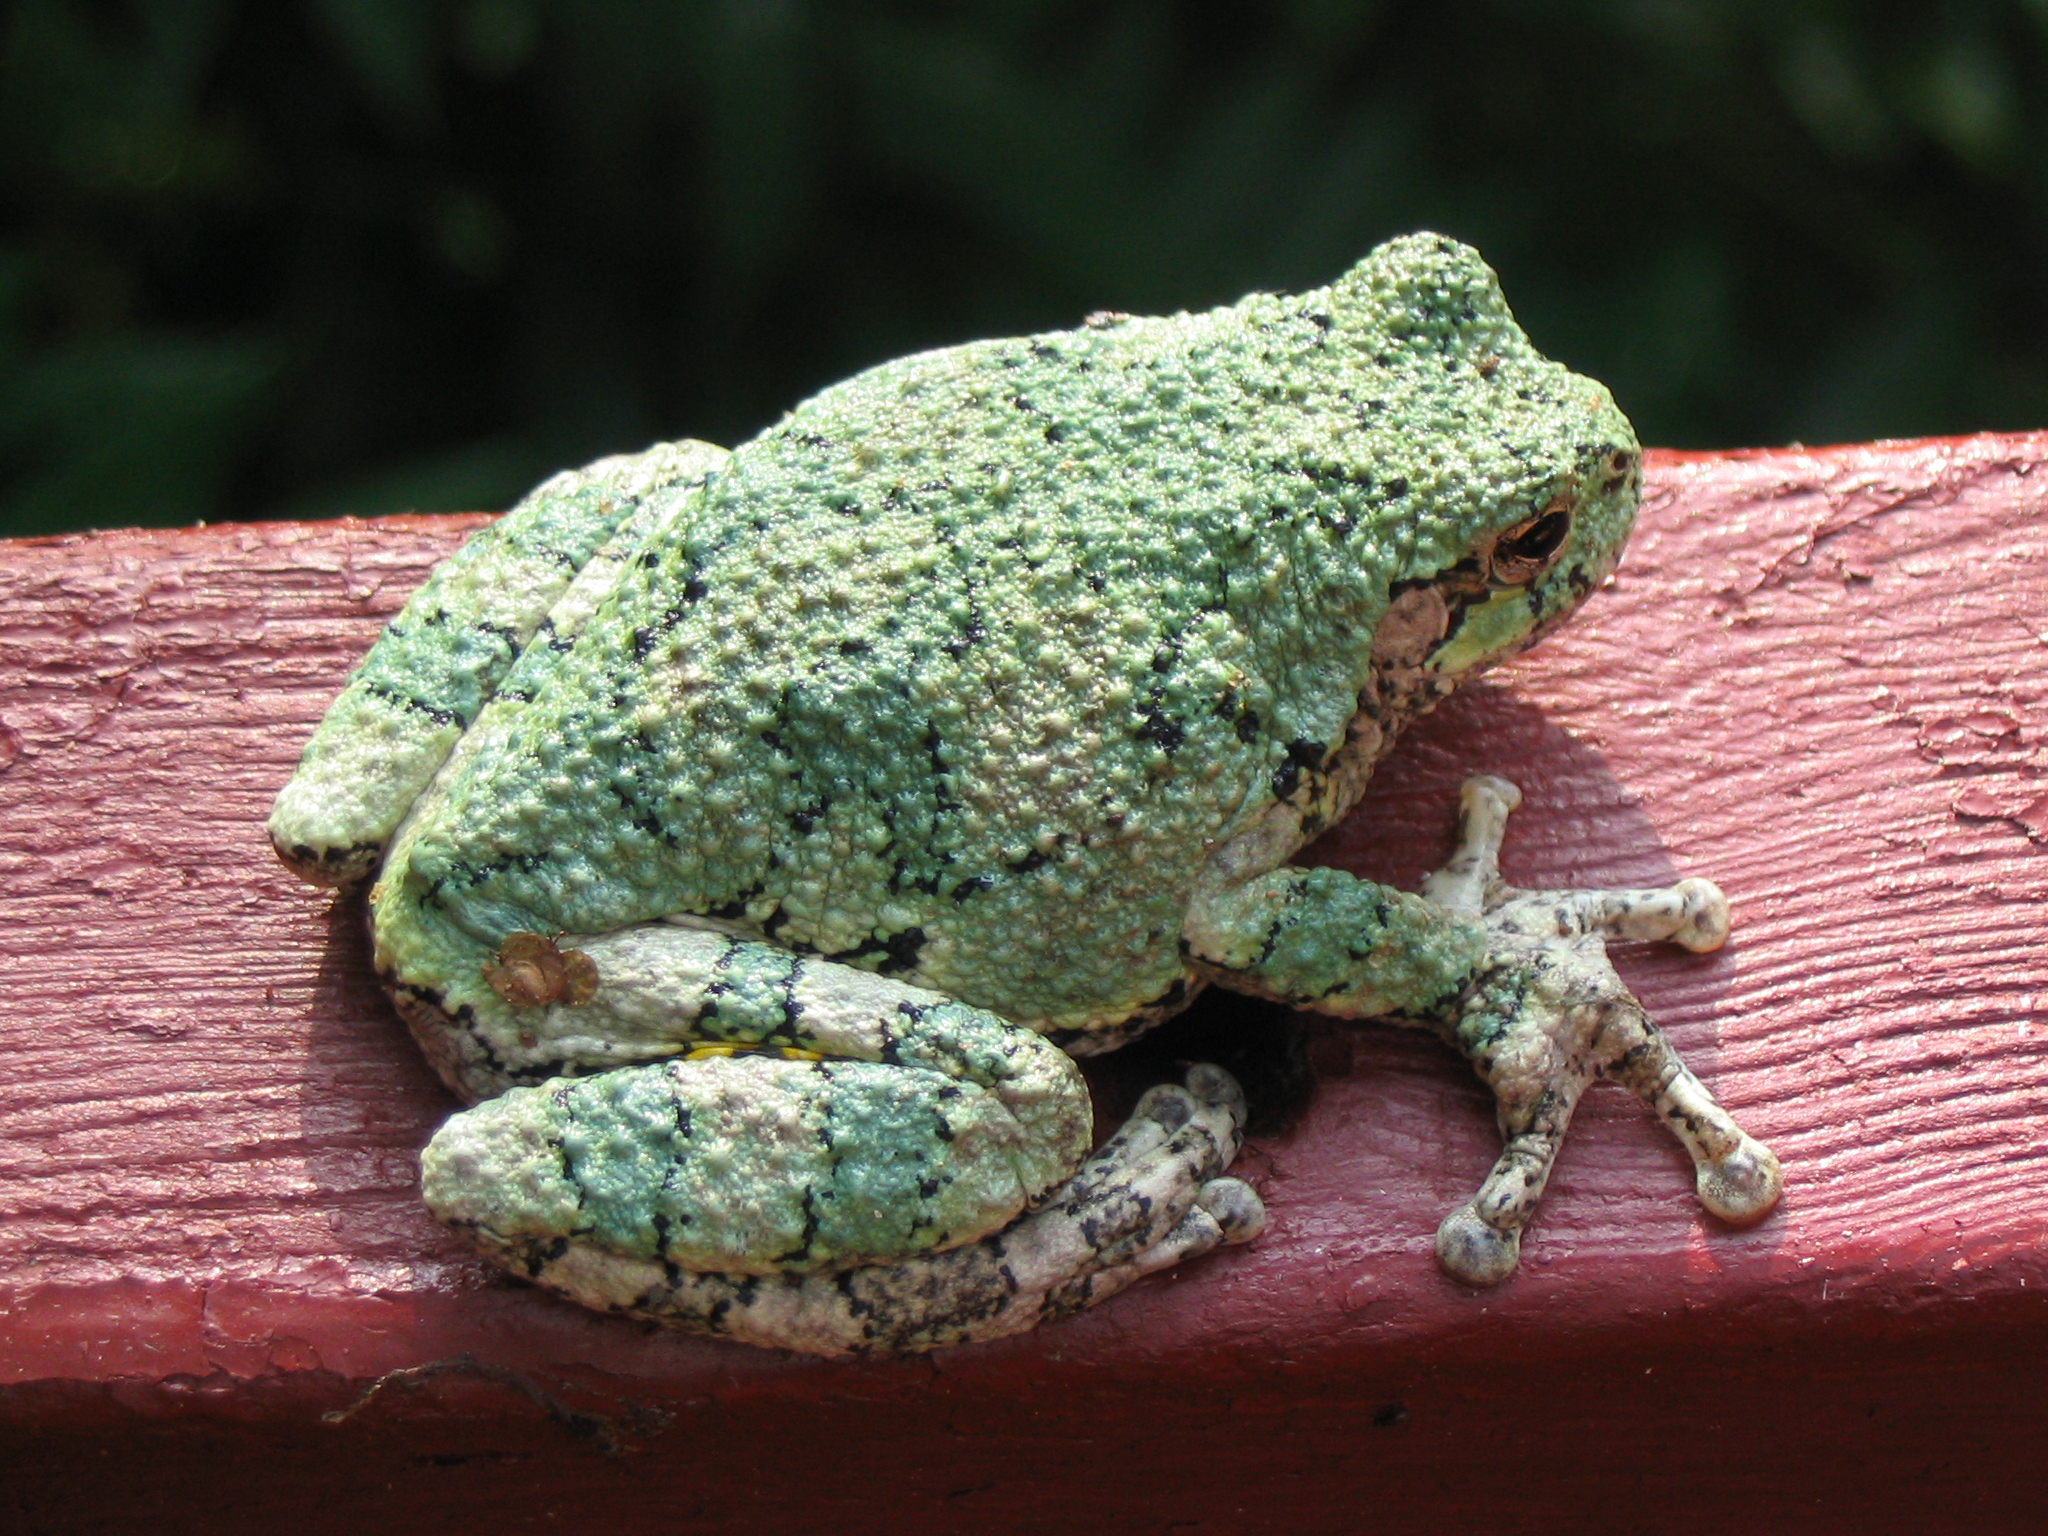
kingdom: Animalia
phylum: Chordata
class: Amphibia
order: Anura
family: Hylidae
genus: Dryophytes
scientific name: Dryophytes versicolor
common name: Gray treefrog
